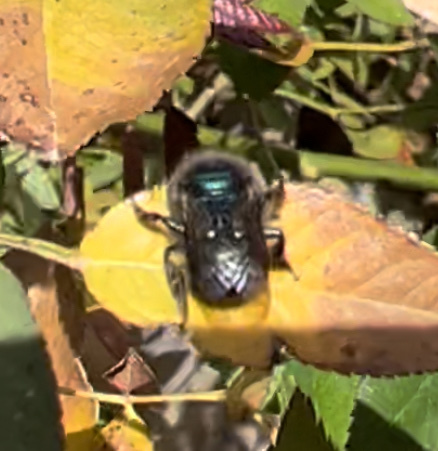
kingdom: Animalia
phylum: Arthropoda
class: Insecta
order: Hymenoptera
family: Megachilidae
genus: Osmia
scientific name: Osmia ribifloris
